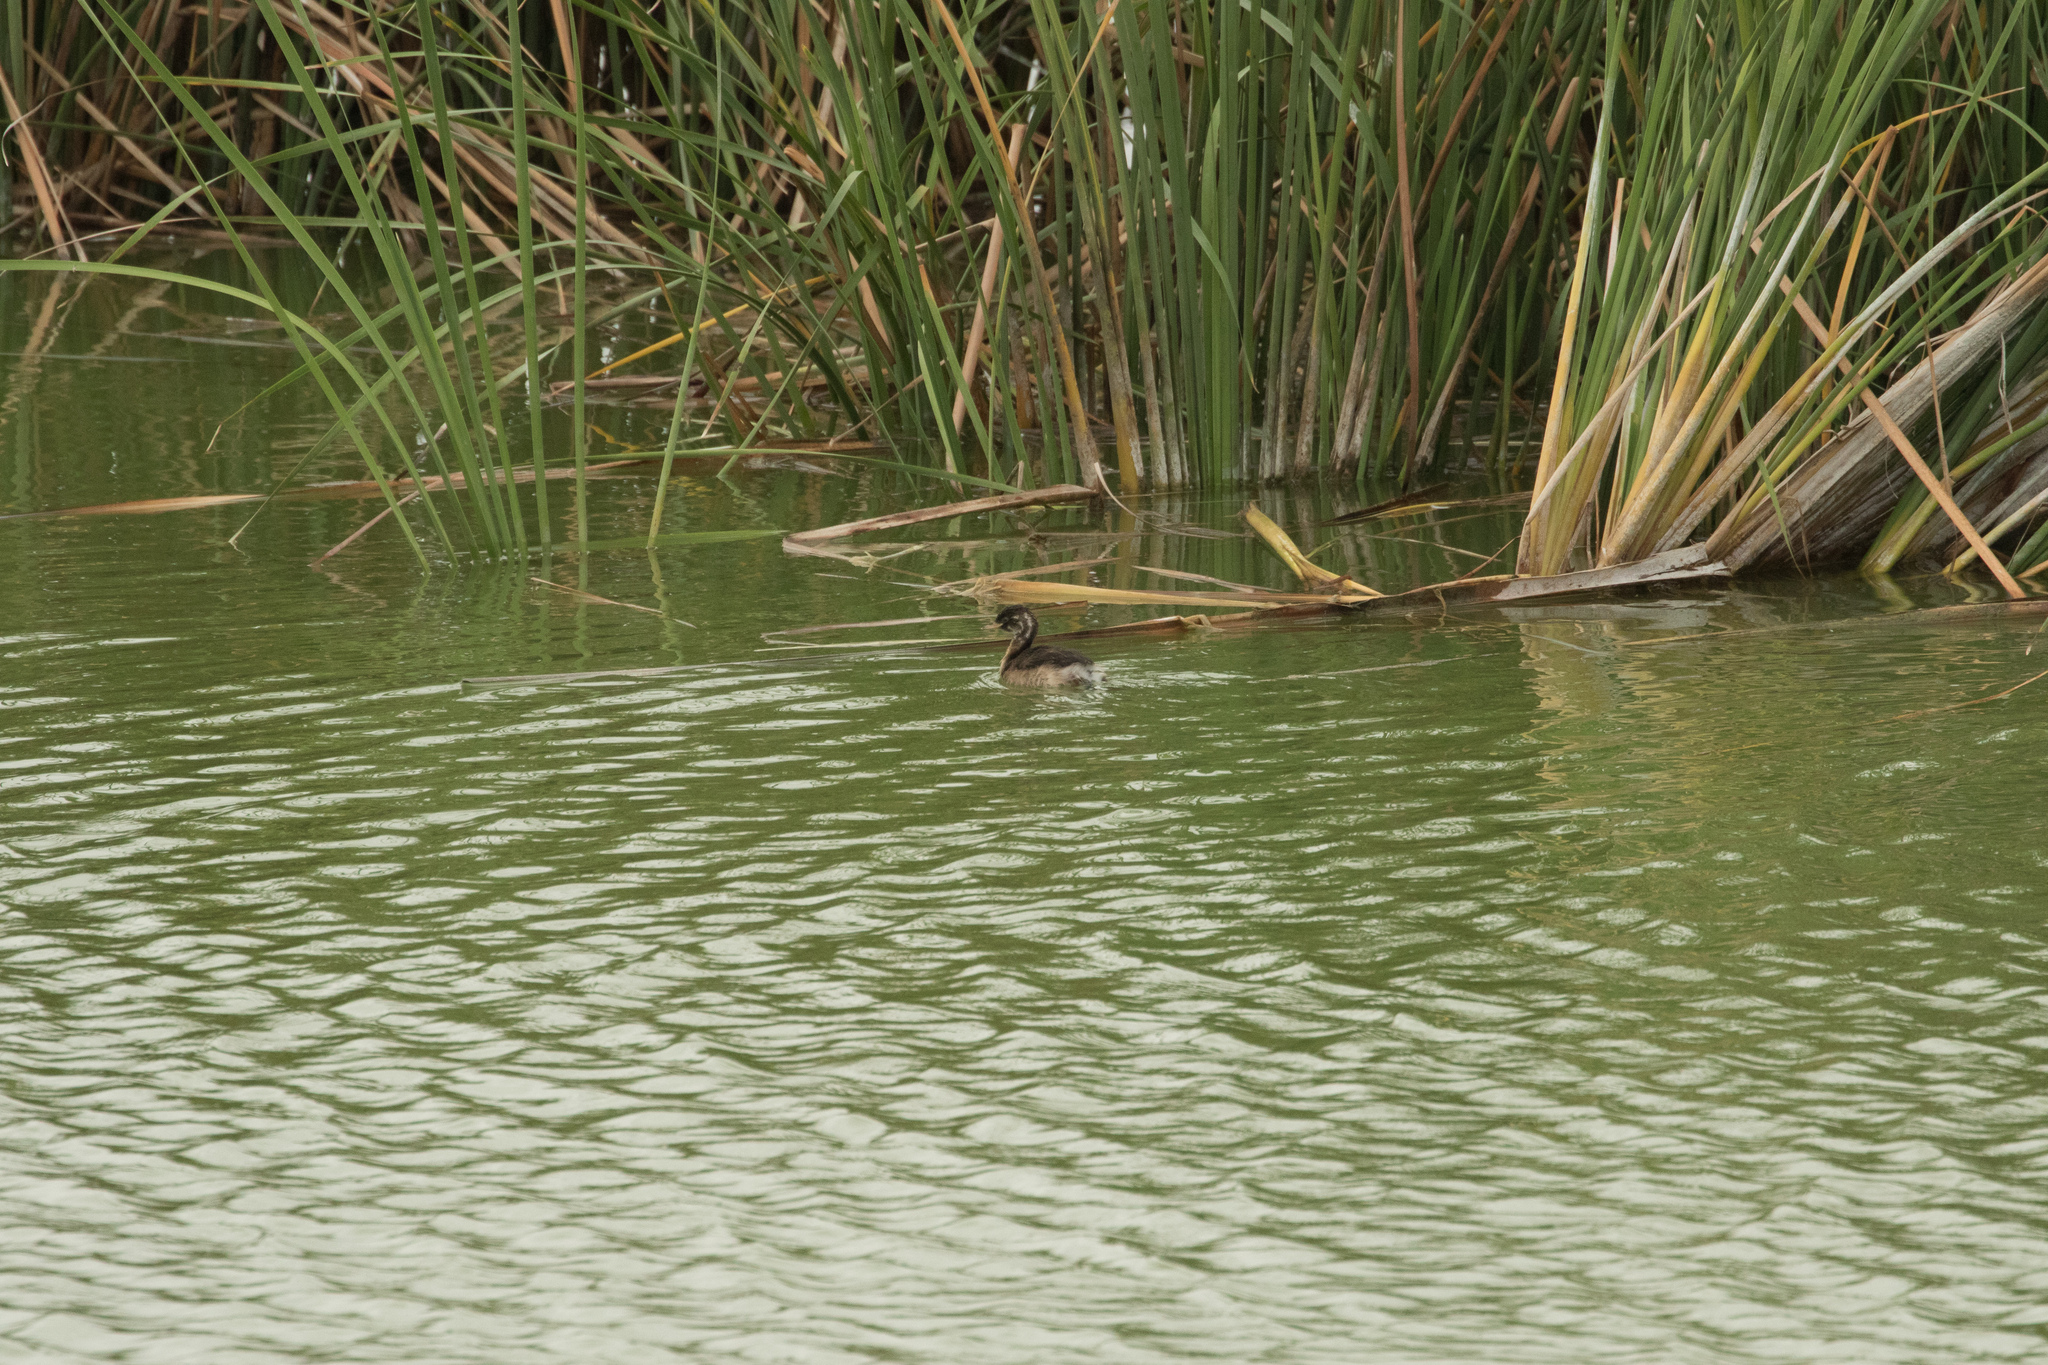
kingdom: Animalia
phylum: Chordata
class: Aves
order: Podicipediformes
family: Podicipedidae
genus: Tachybaptus
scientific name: Tachybaptus ruficollis
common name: Little grebe
